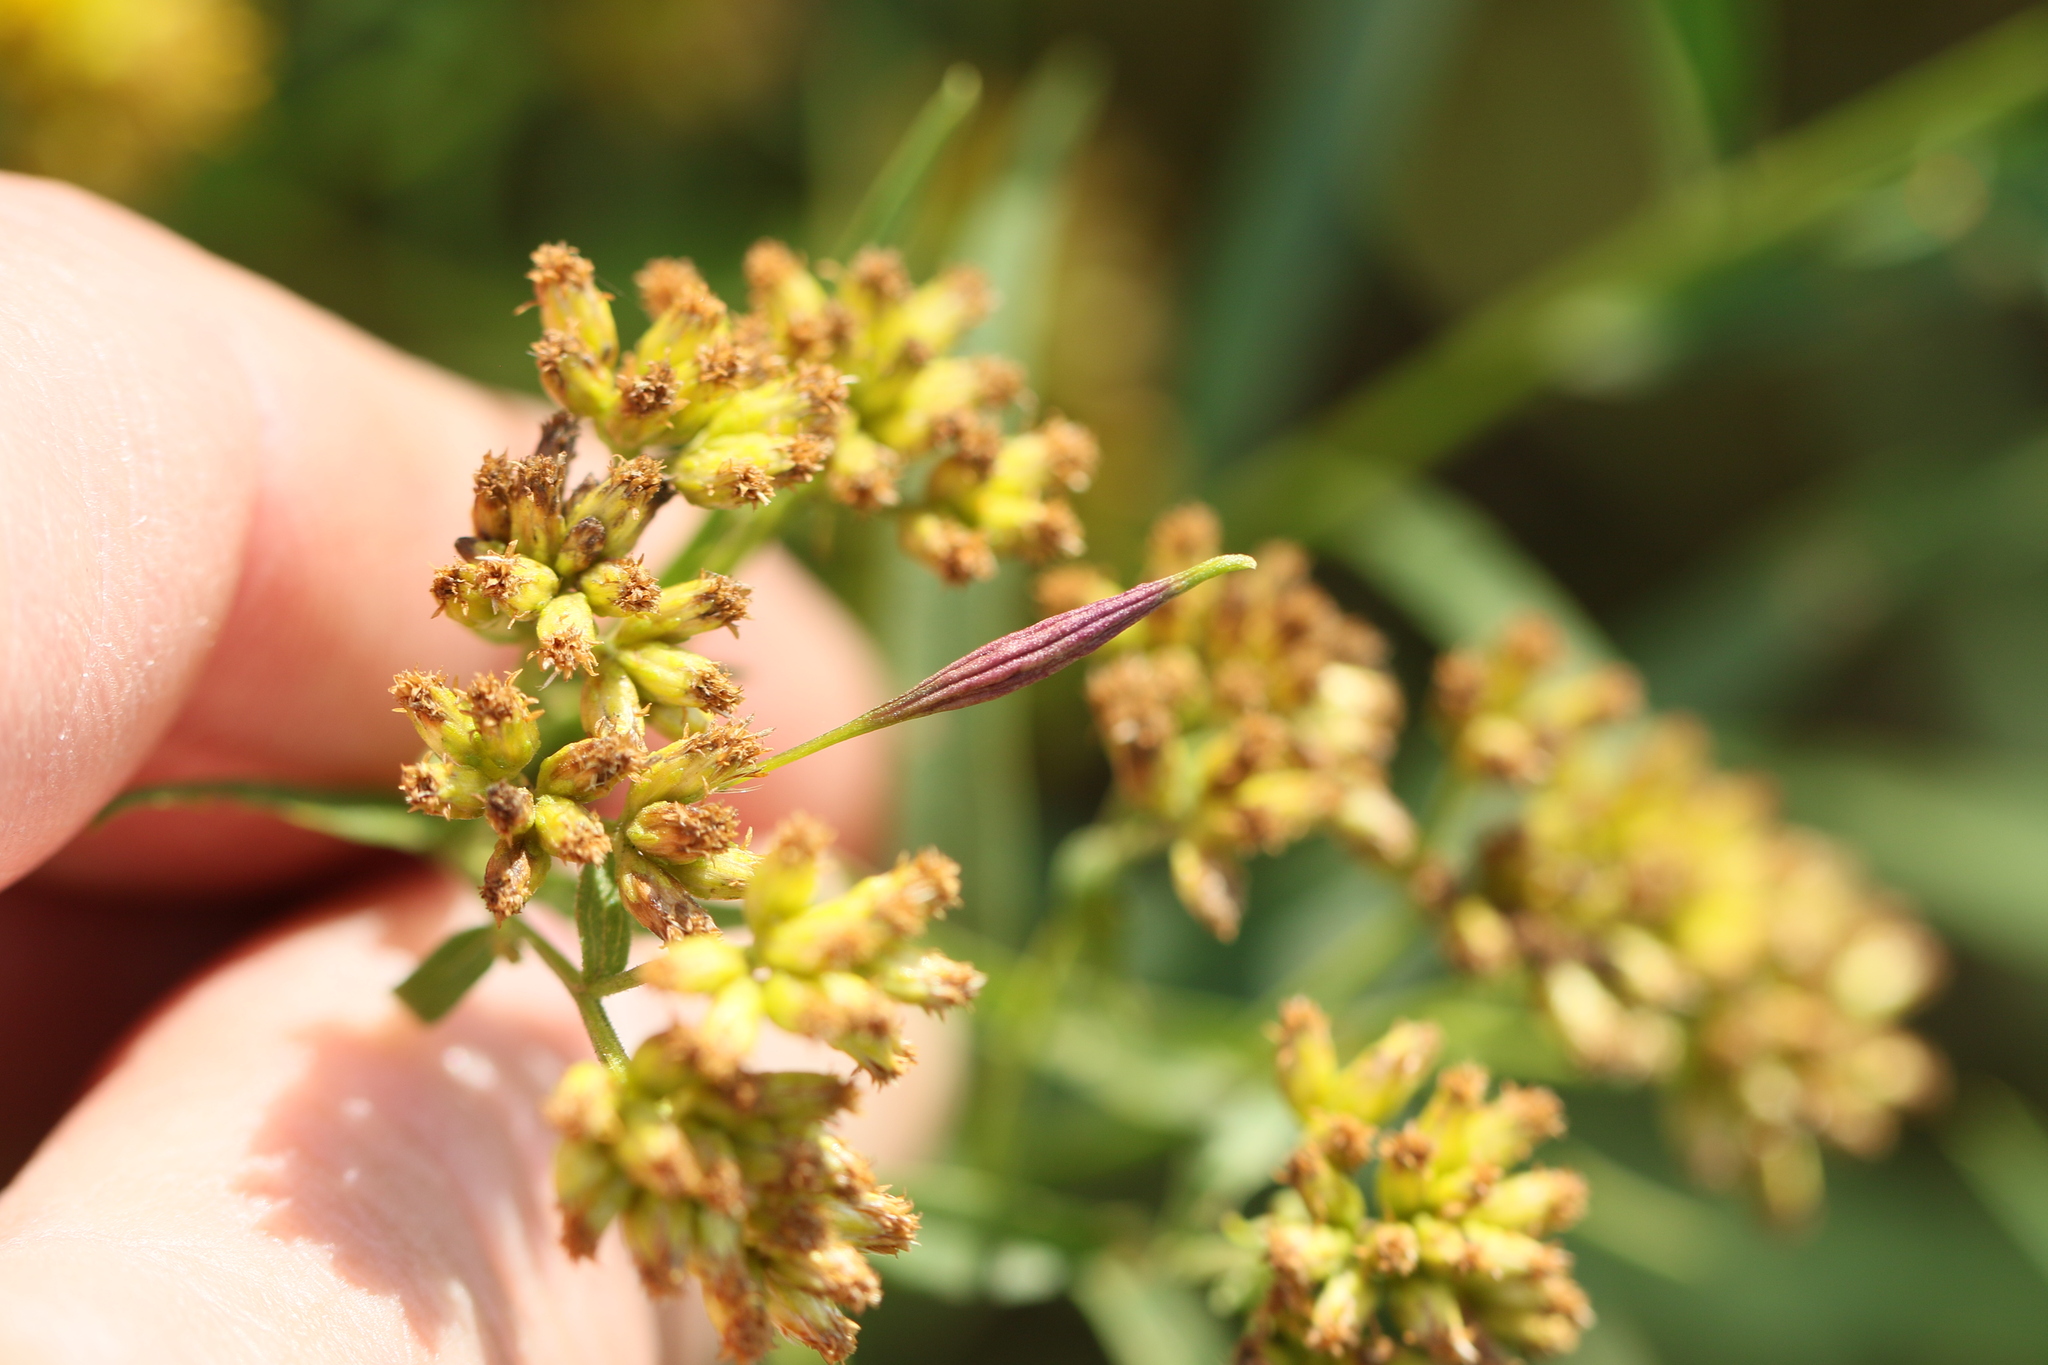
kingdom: Animalia
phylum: Arthropoda
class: Insecta
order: Diptera
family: Cecidomyiidae
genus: Rhopalomyia
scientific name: Rhopalomyia pedicellata
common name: Goldentop pedicellate gall midge
